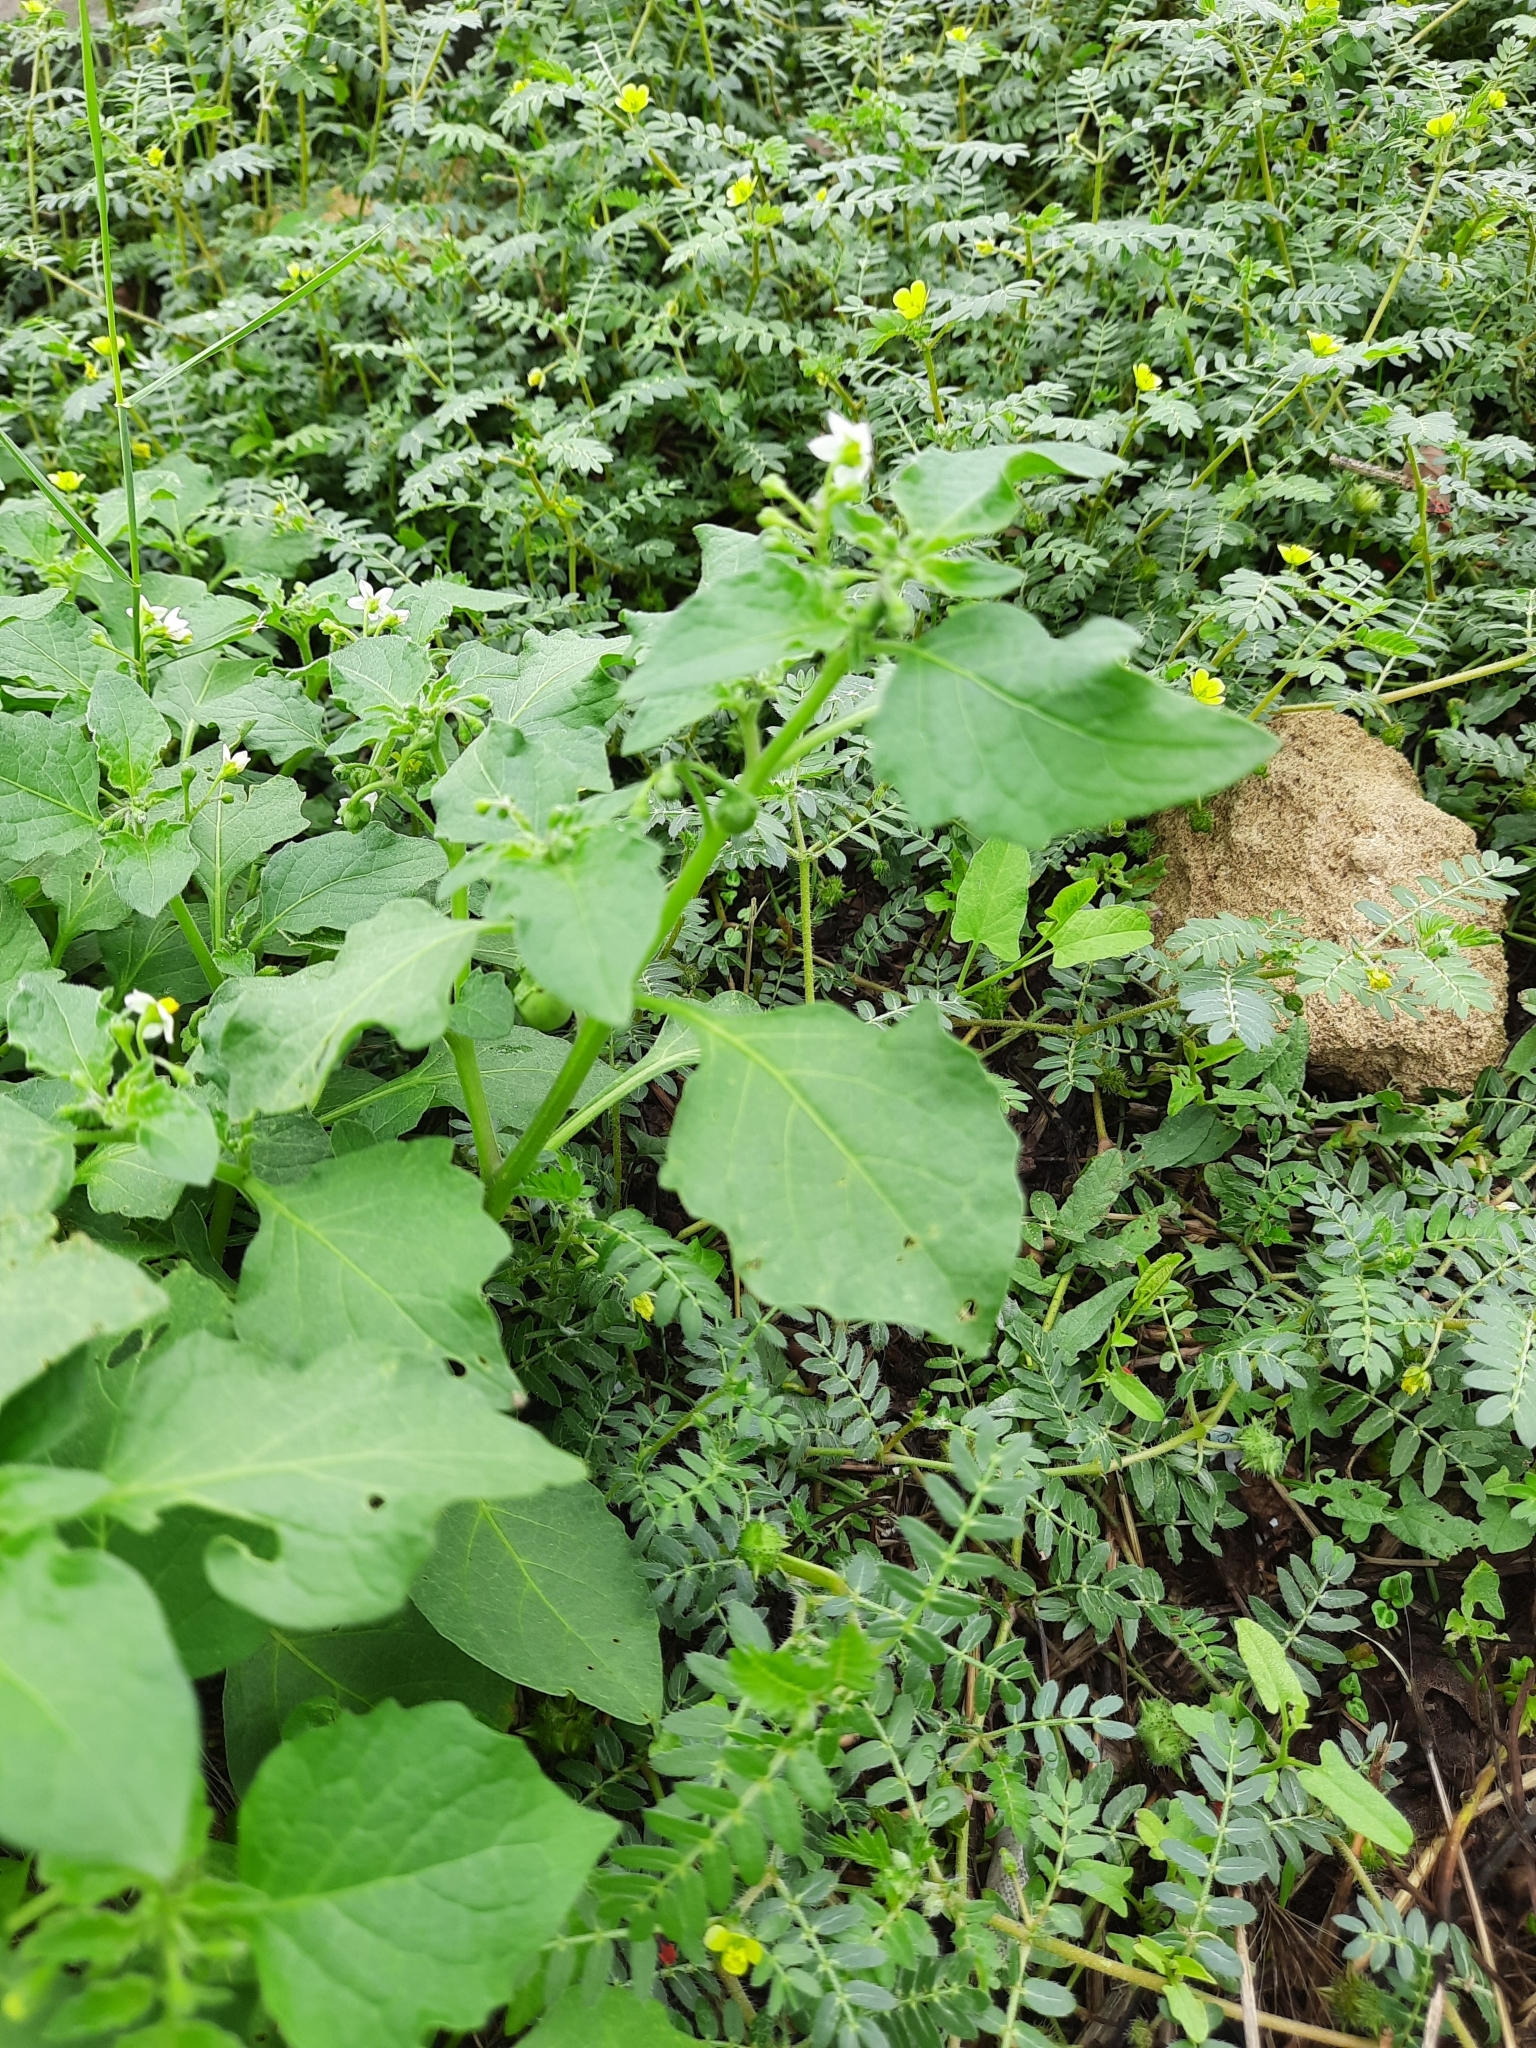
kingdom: Plantae
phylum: Tracheophyta
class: Magnoliopsida
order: Solanales
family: Solanaceae
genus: Solanum
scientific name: Solanum nigrum
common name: Black nightshade
